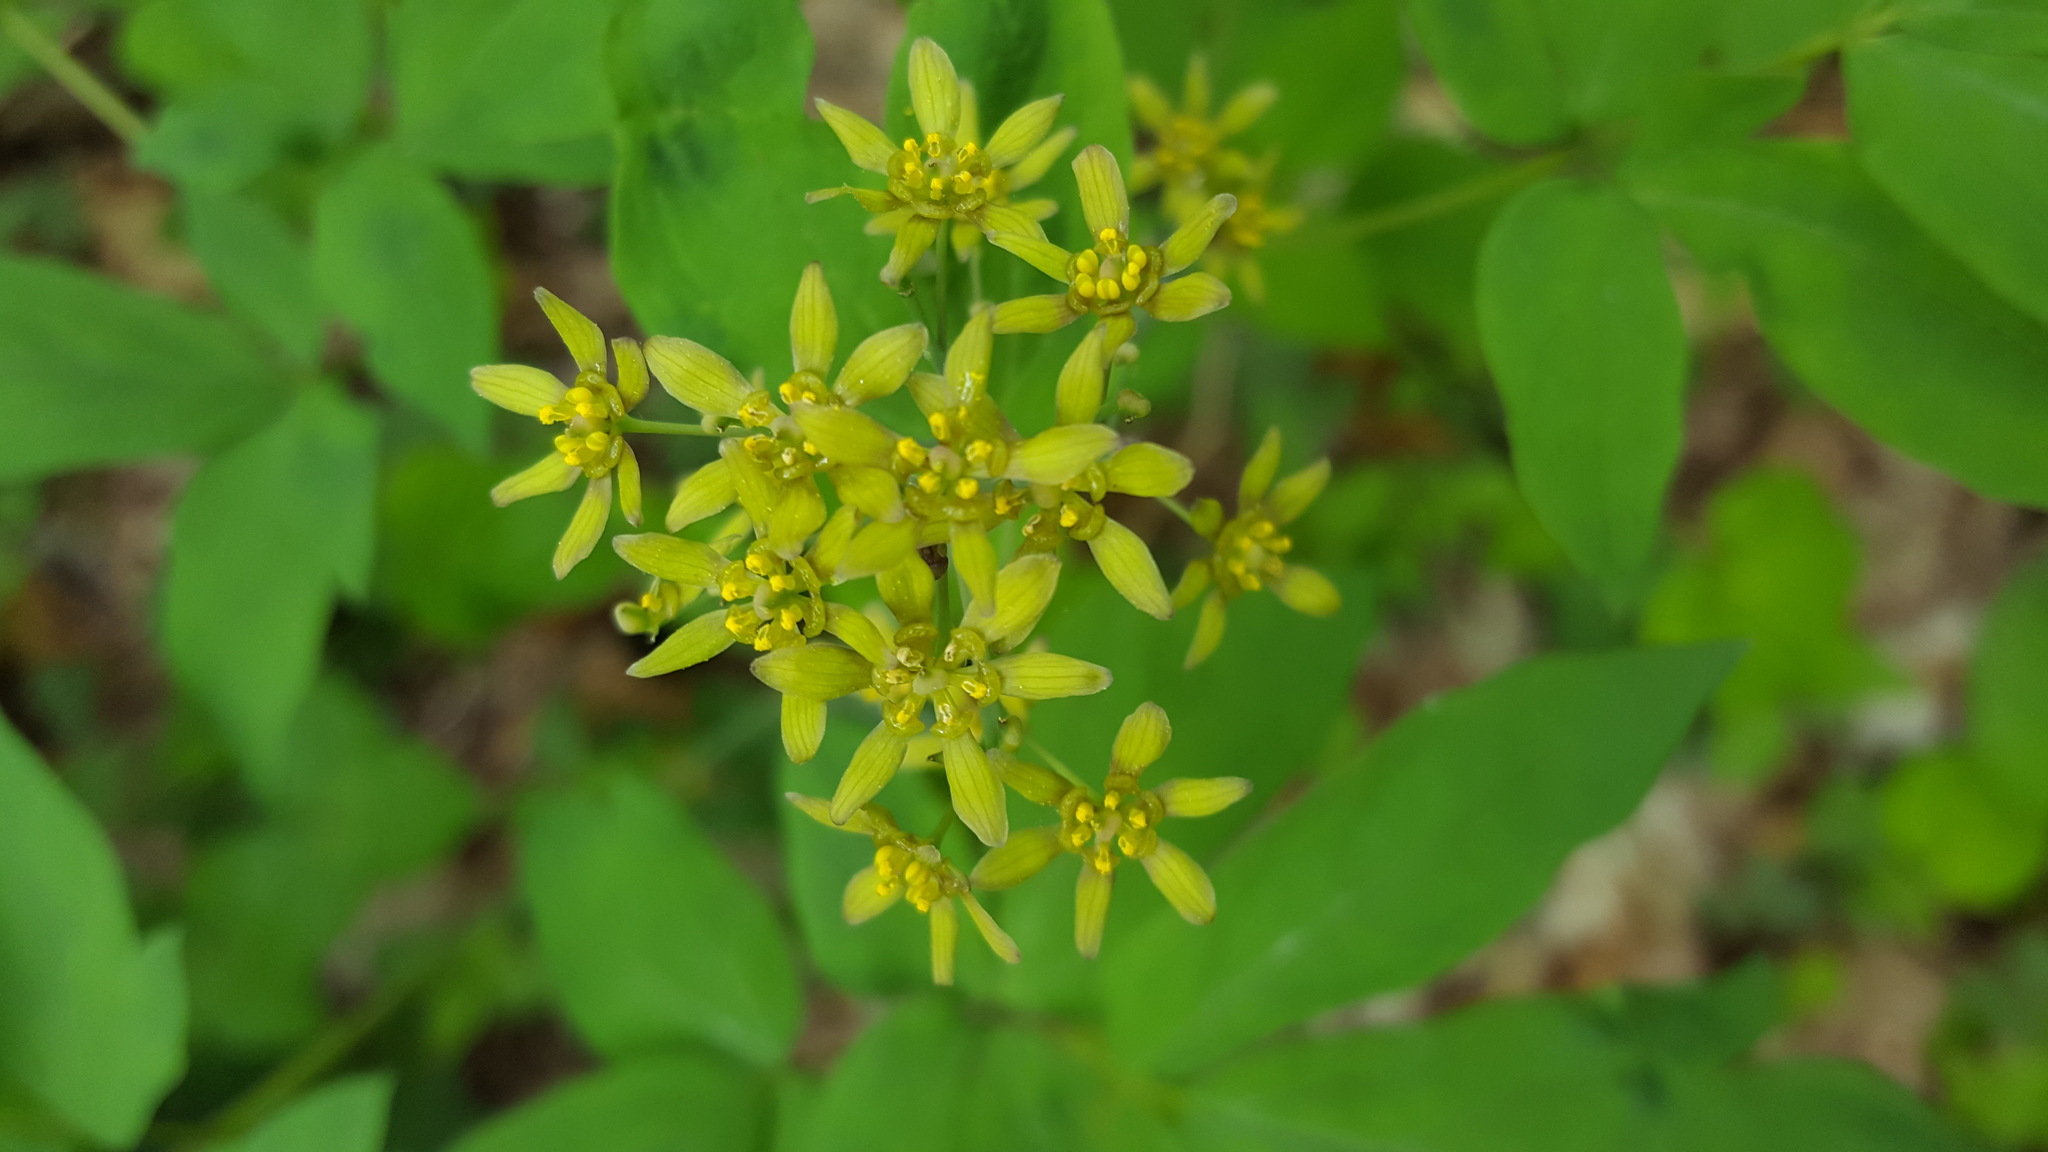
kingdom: Plantae
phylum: Tracheophyta
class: Magnoliopsida
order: Ranunculales
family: Berberidaceae
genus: Caulophyllum
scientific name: Caulophyllum thalictroides
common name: Blue cohosh
